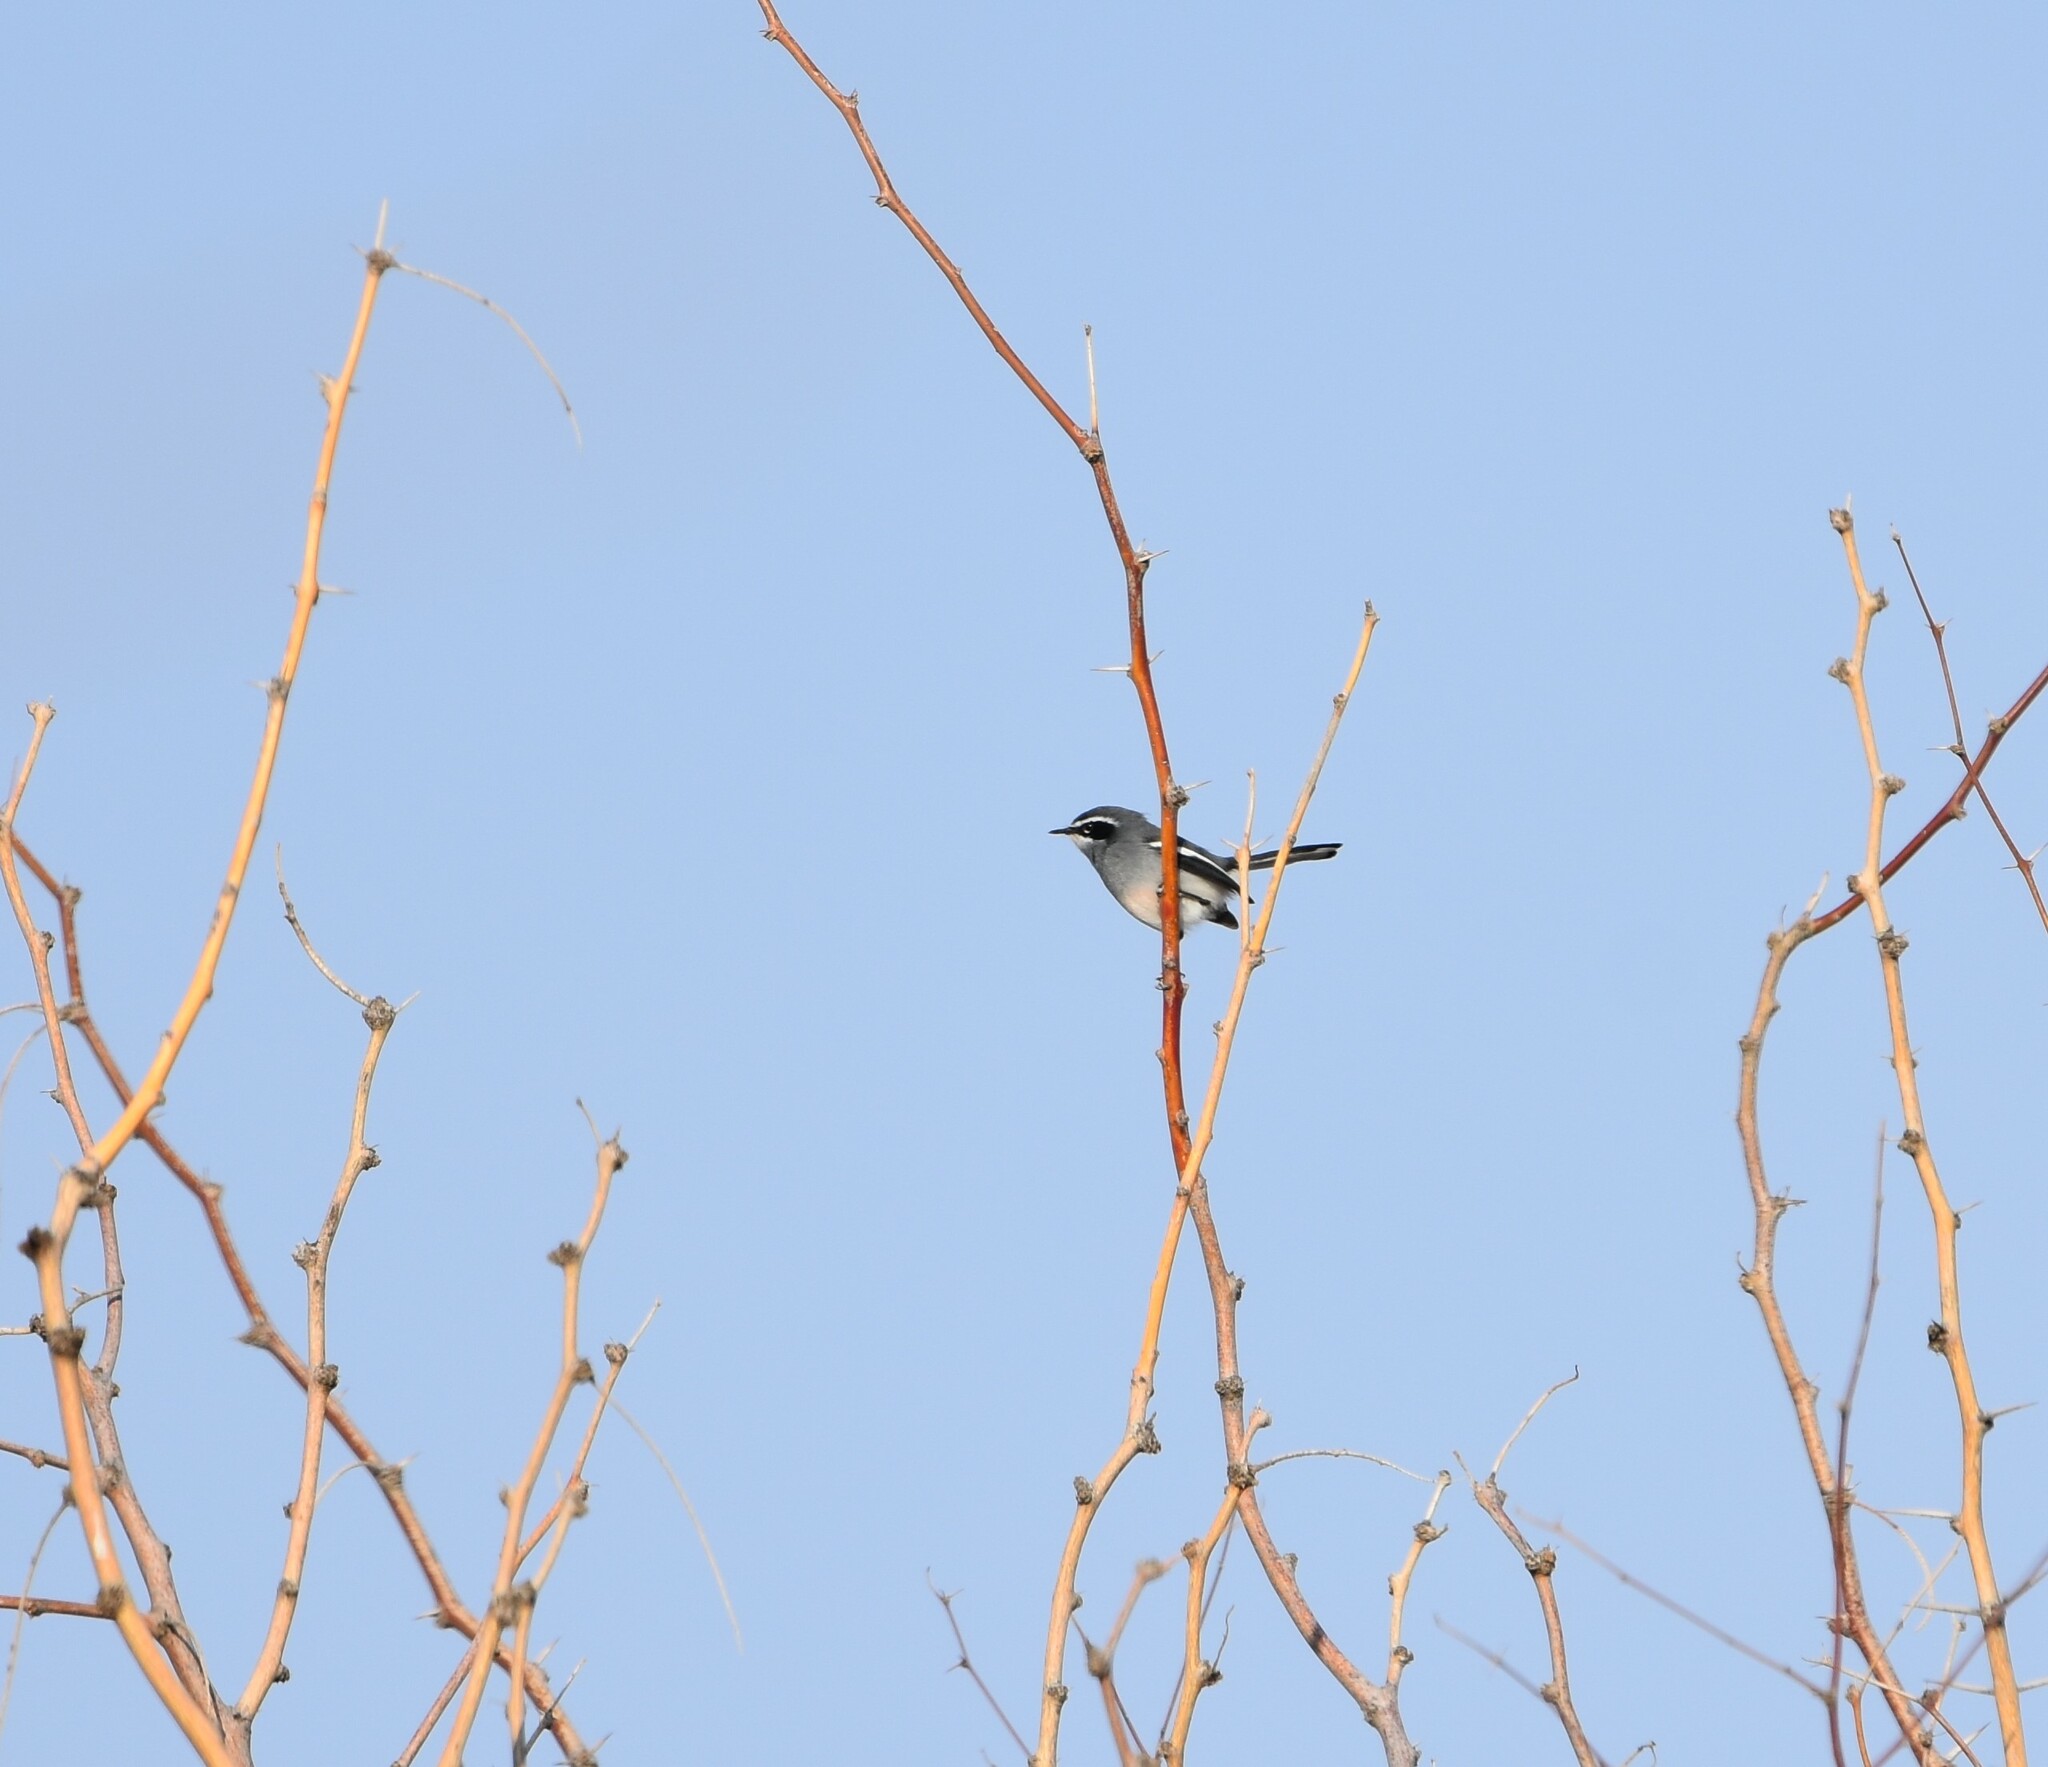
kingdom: Animalia
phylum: Chordata
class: Aves
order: Passeriformes
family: Stenostiridae
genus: Stenostira
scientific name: Stenostira scita
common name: Fairy flycatcher
